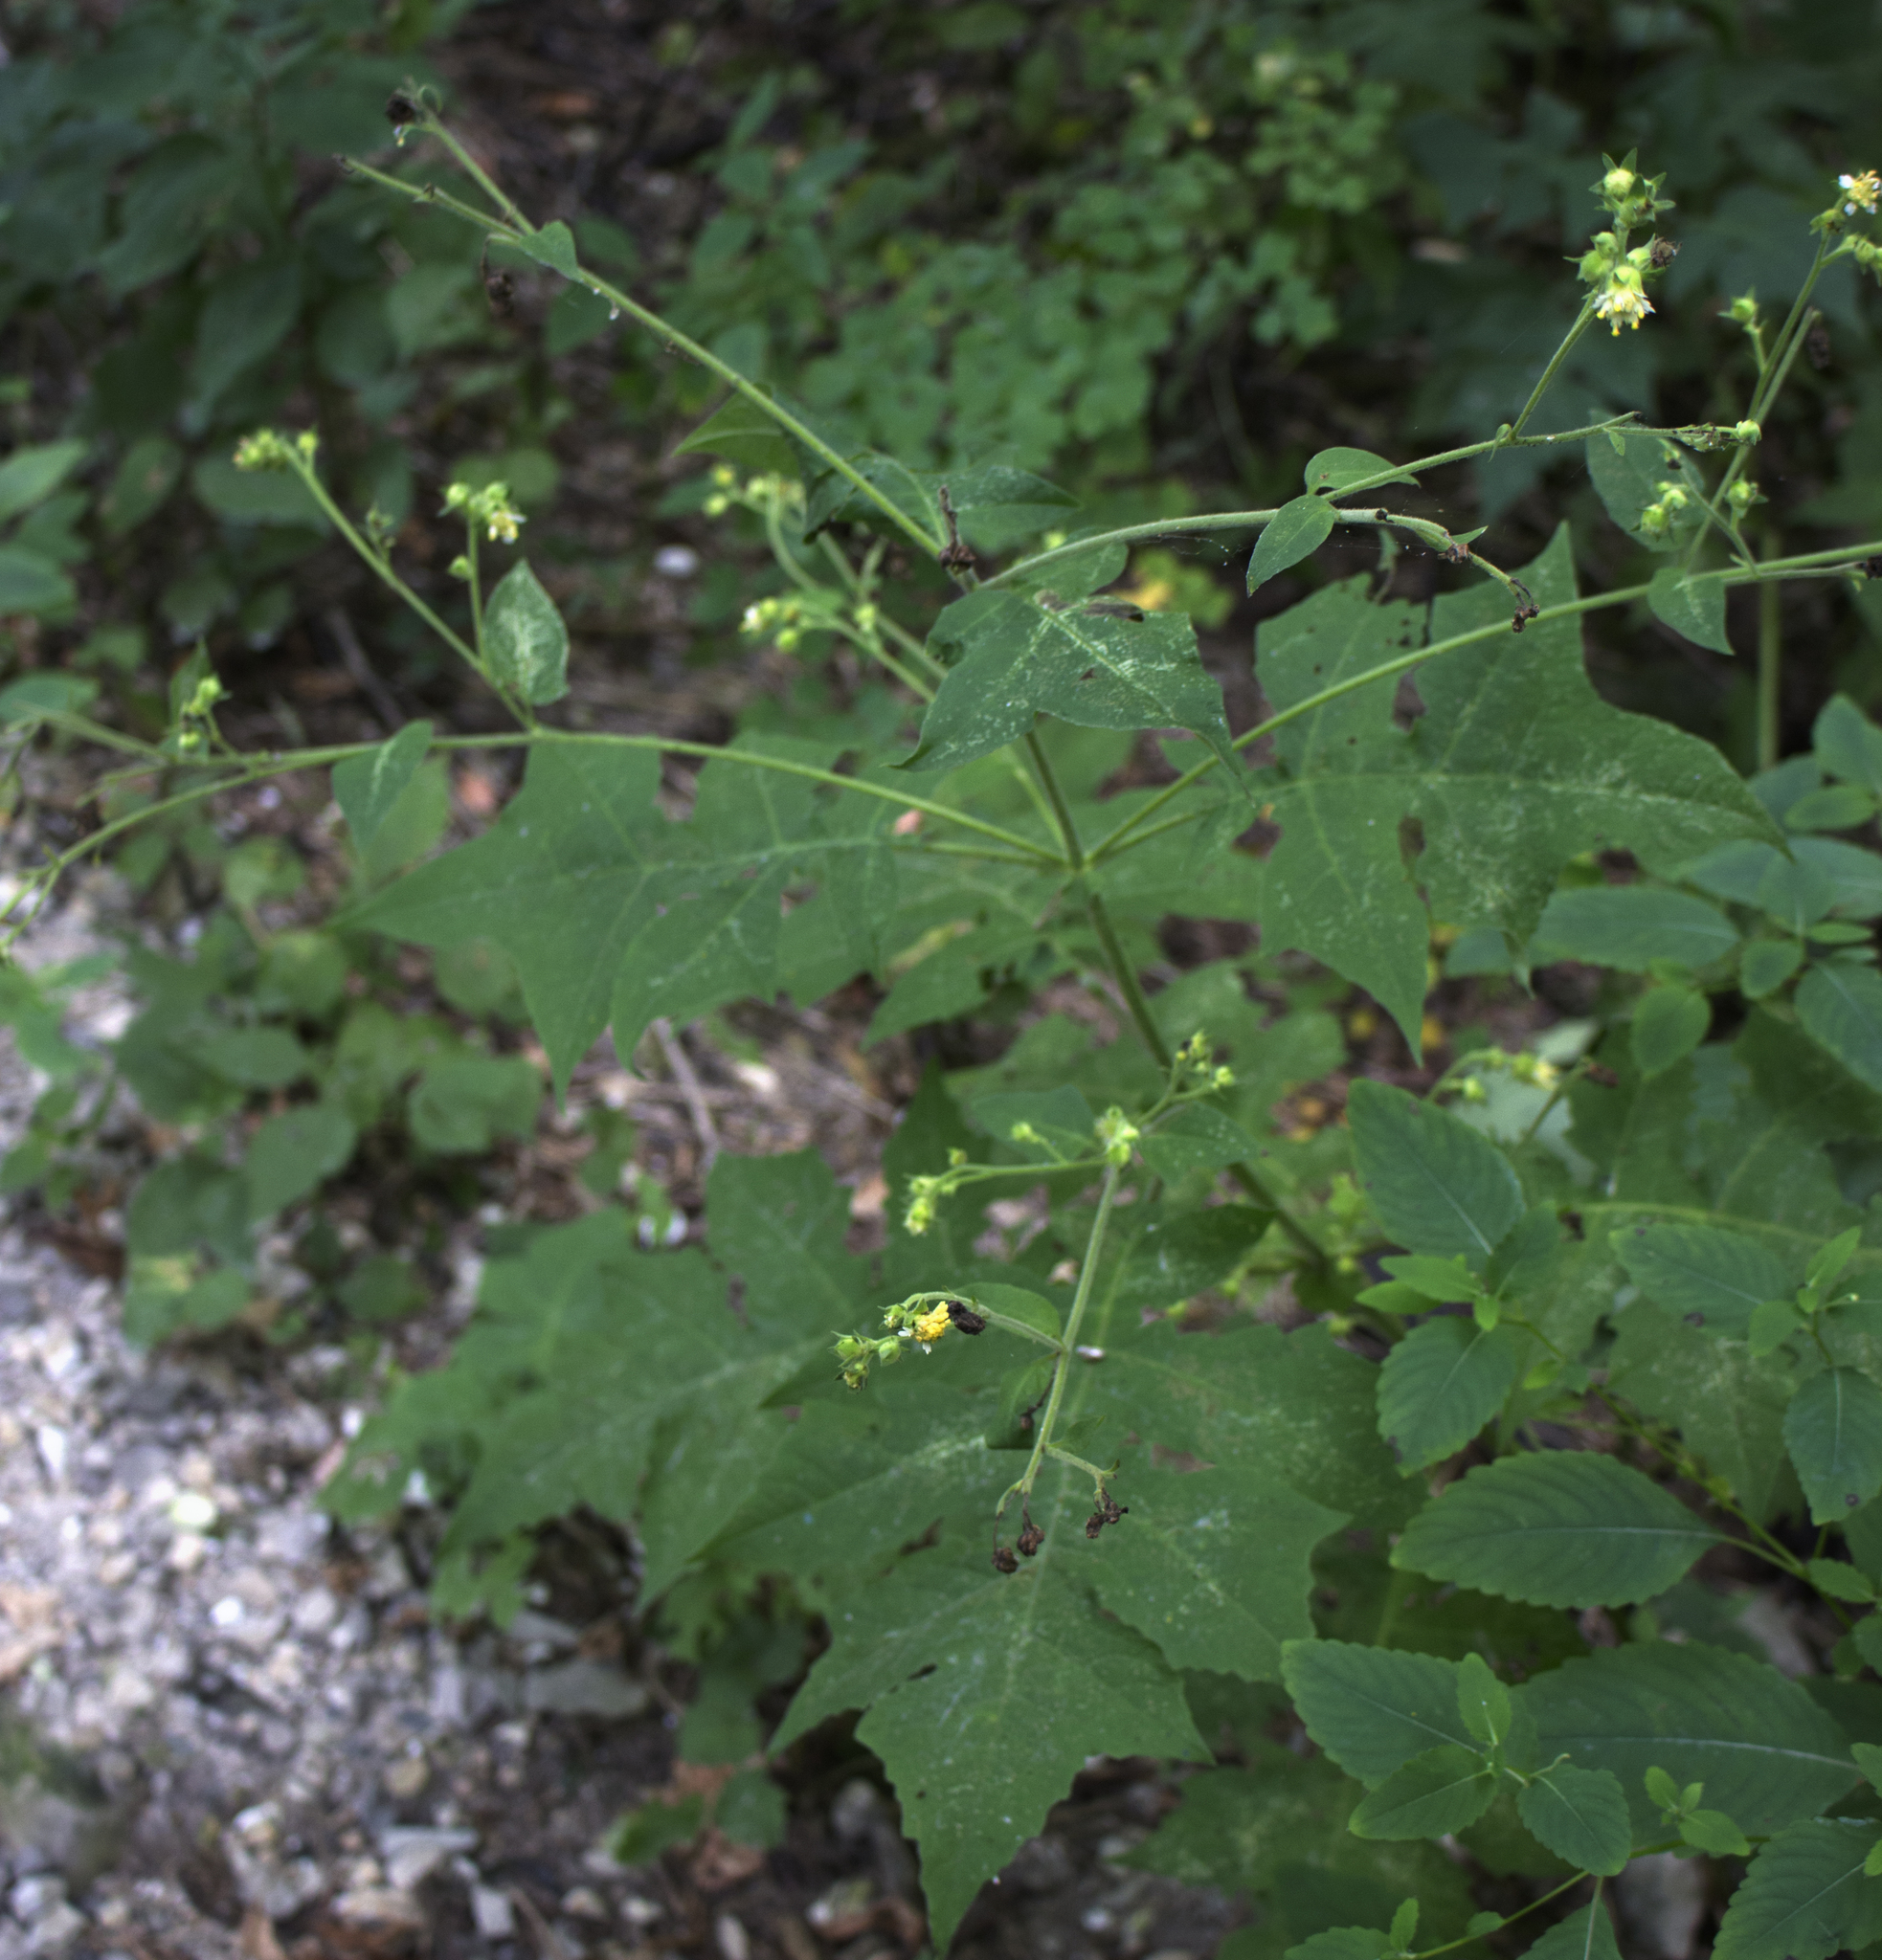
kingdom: Plantae
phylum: Tracheophyta
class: Magnoliopsida
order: Asterales
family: Asteraceae
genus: Polymnia
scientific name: Polymnia canadensis
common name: Pale-flowered leafcup
